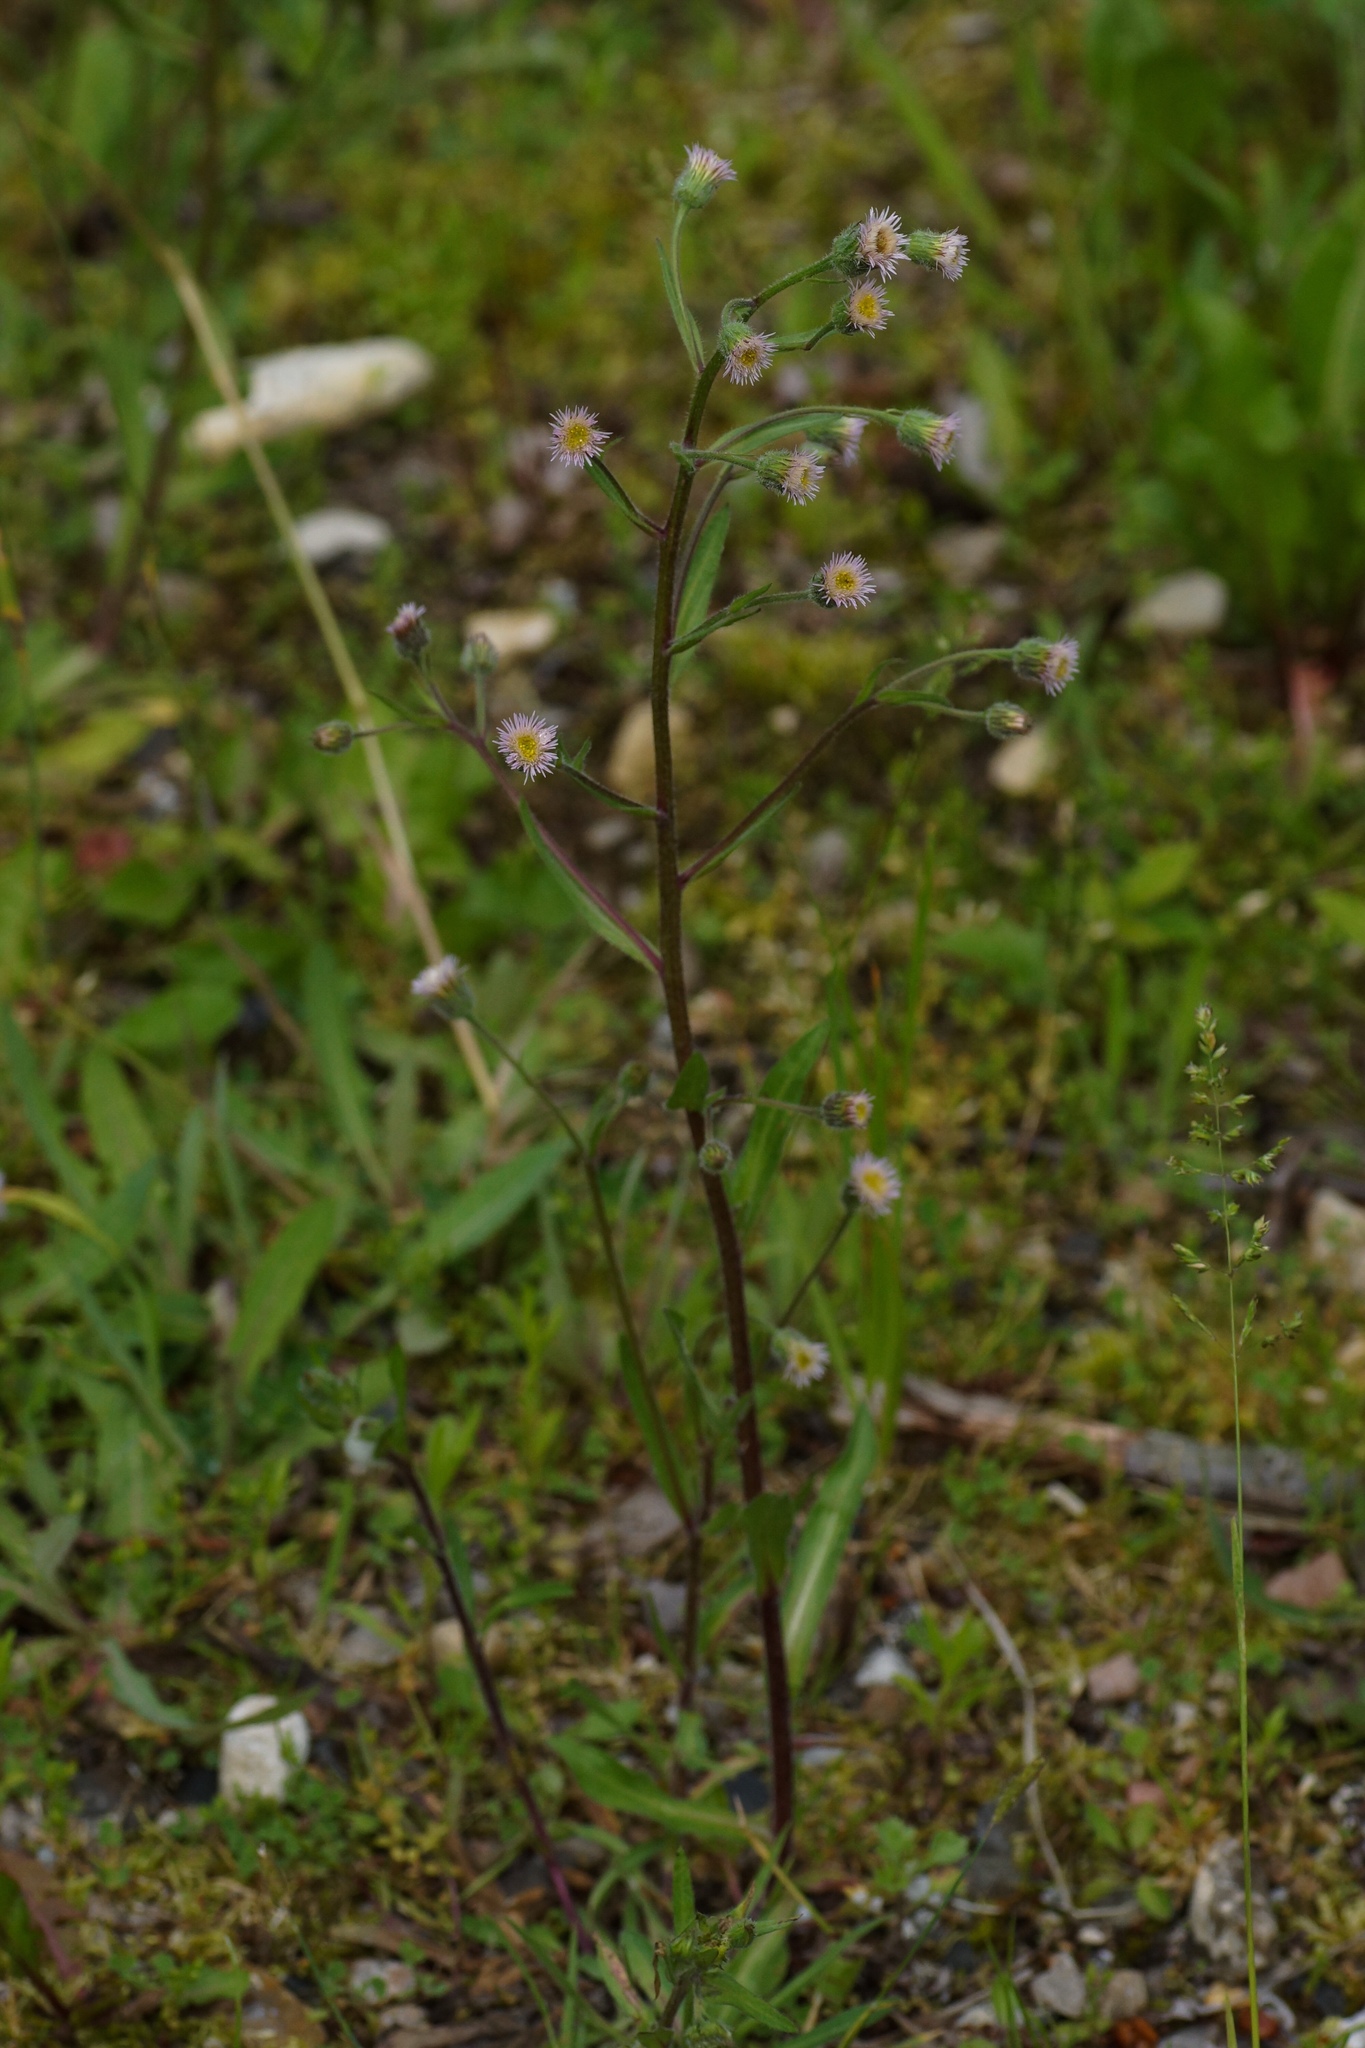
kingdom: Plantae
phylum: Tracheophyta
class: Magnoliopsida
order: Asterales
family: Asteraceae
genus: Erigeron
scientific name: Erigeron acris
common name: Blue fleabane
